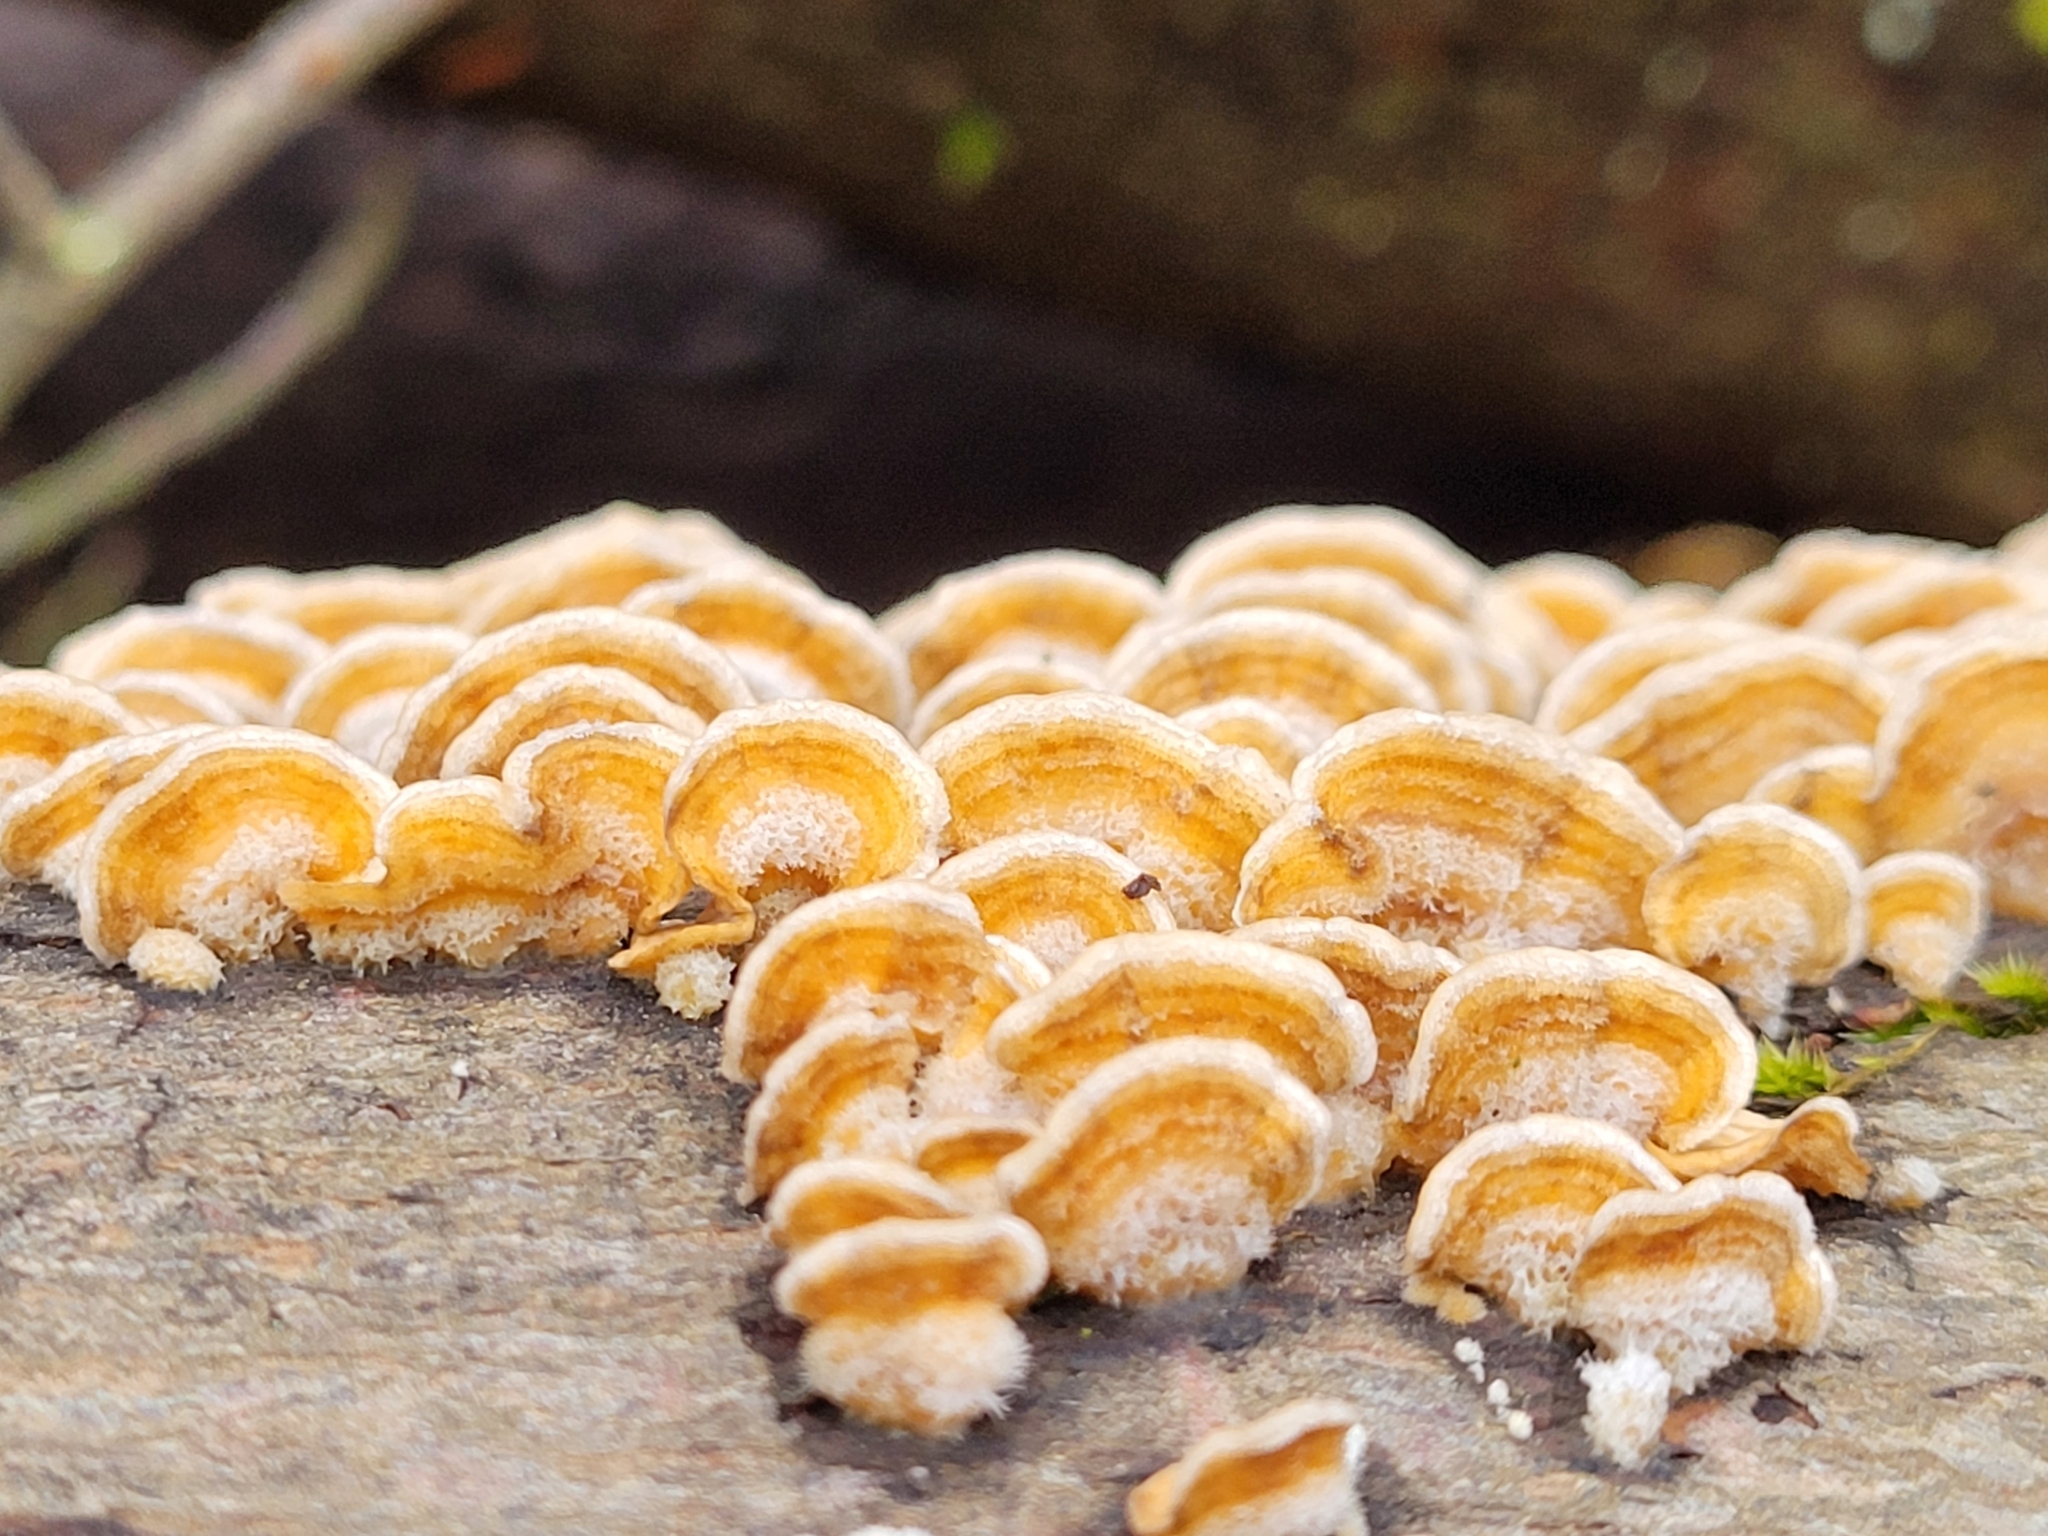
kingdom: Fungi
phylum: Basidiomycota
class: Agaricomycetes
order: Russulales
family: Stereaceae
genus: Stereum
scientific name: Stereum hirsutum
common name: Hairy curtain crust
